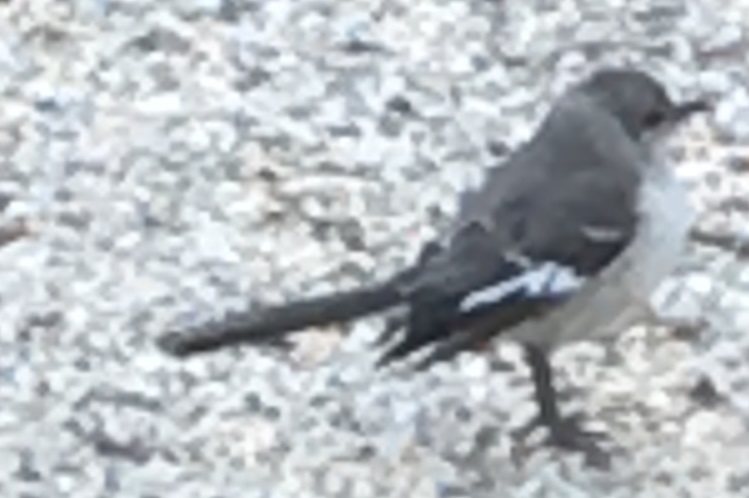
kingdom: Animalia
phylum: Chordata
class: Aves
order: Passeriformes
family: Mimidae
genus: Mimus
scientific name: Mimus polyglottos
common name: Northern mockingbird
